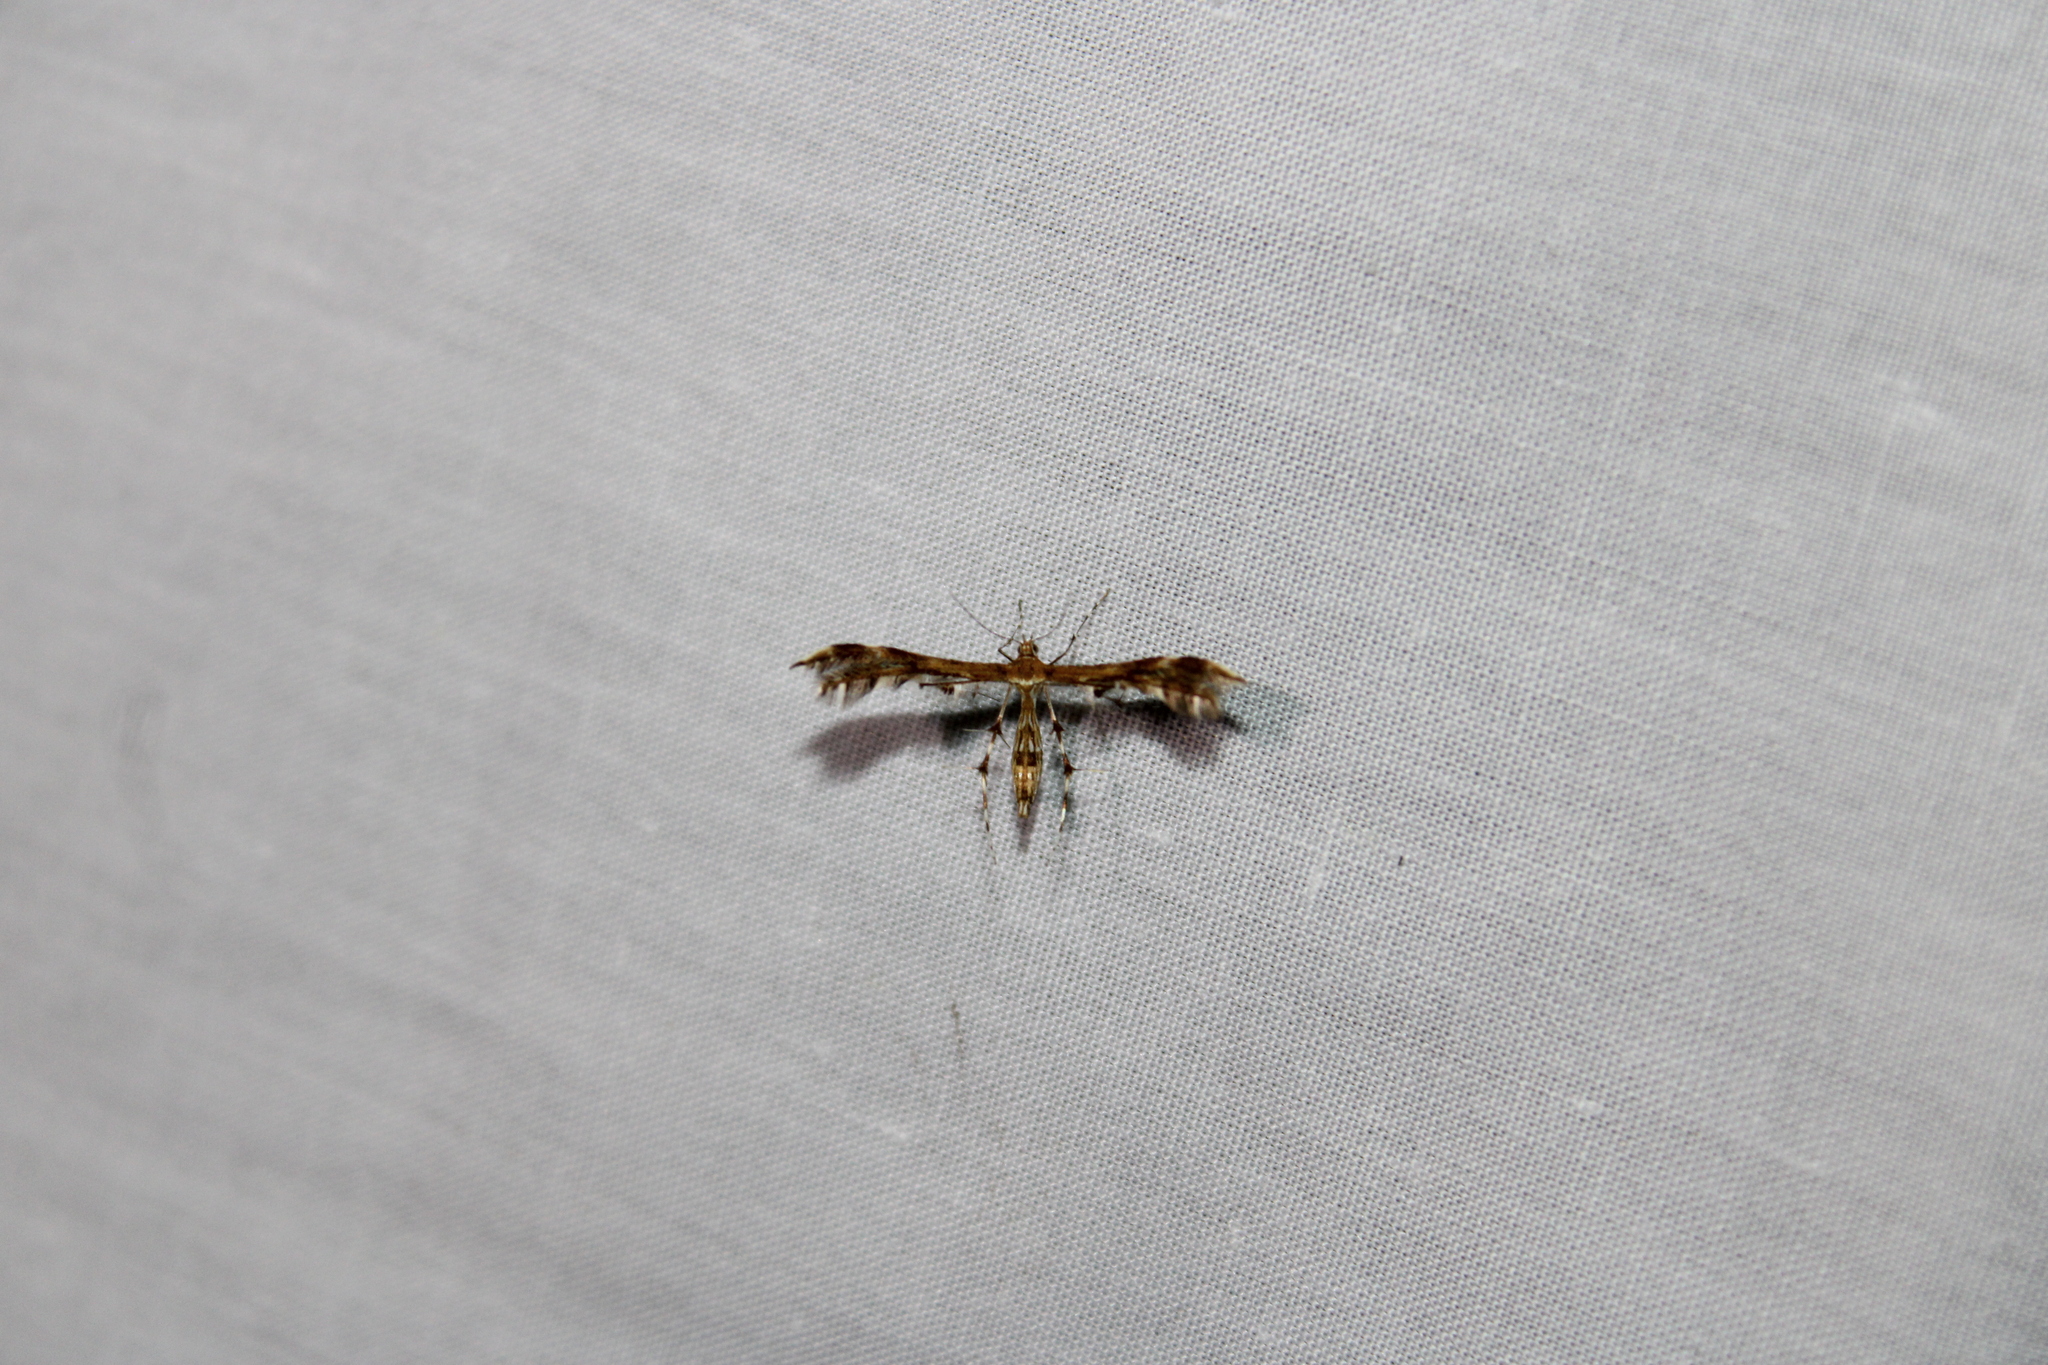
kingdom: Animalia
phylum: Arthropoda
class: Insecta
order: Lepidoptera
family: Pterophoridae
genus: Dejongia
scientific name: Dejongia lobidactylus
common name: Lobed plume moth
